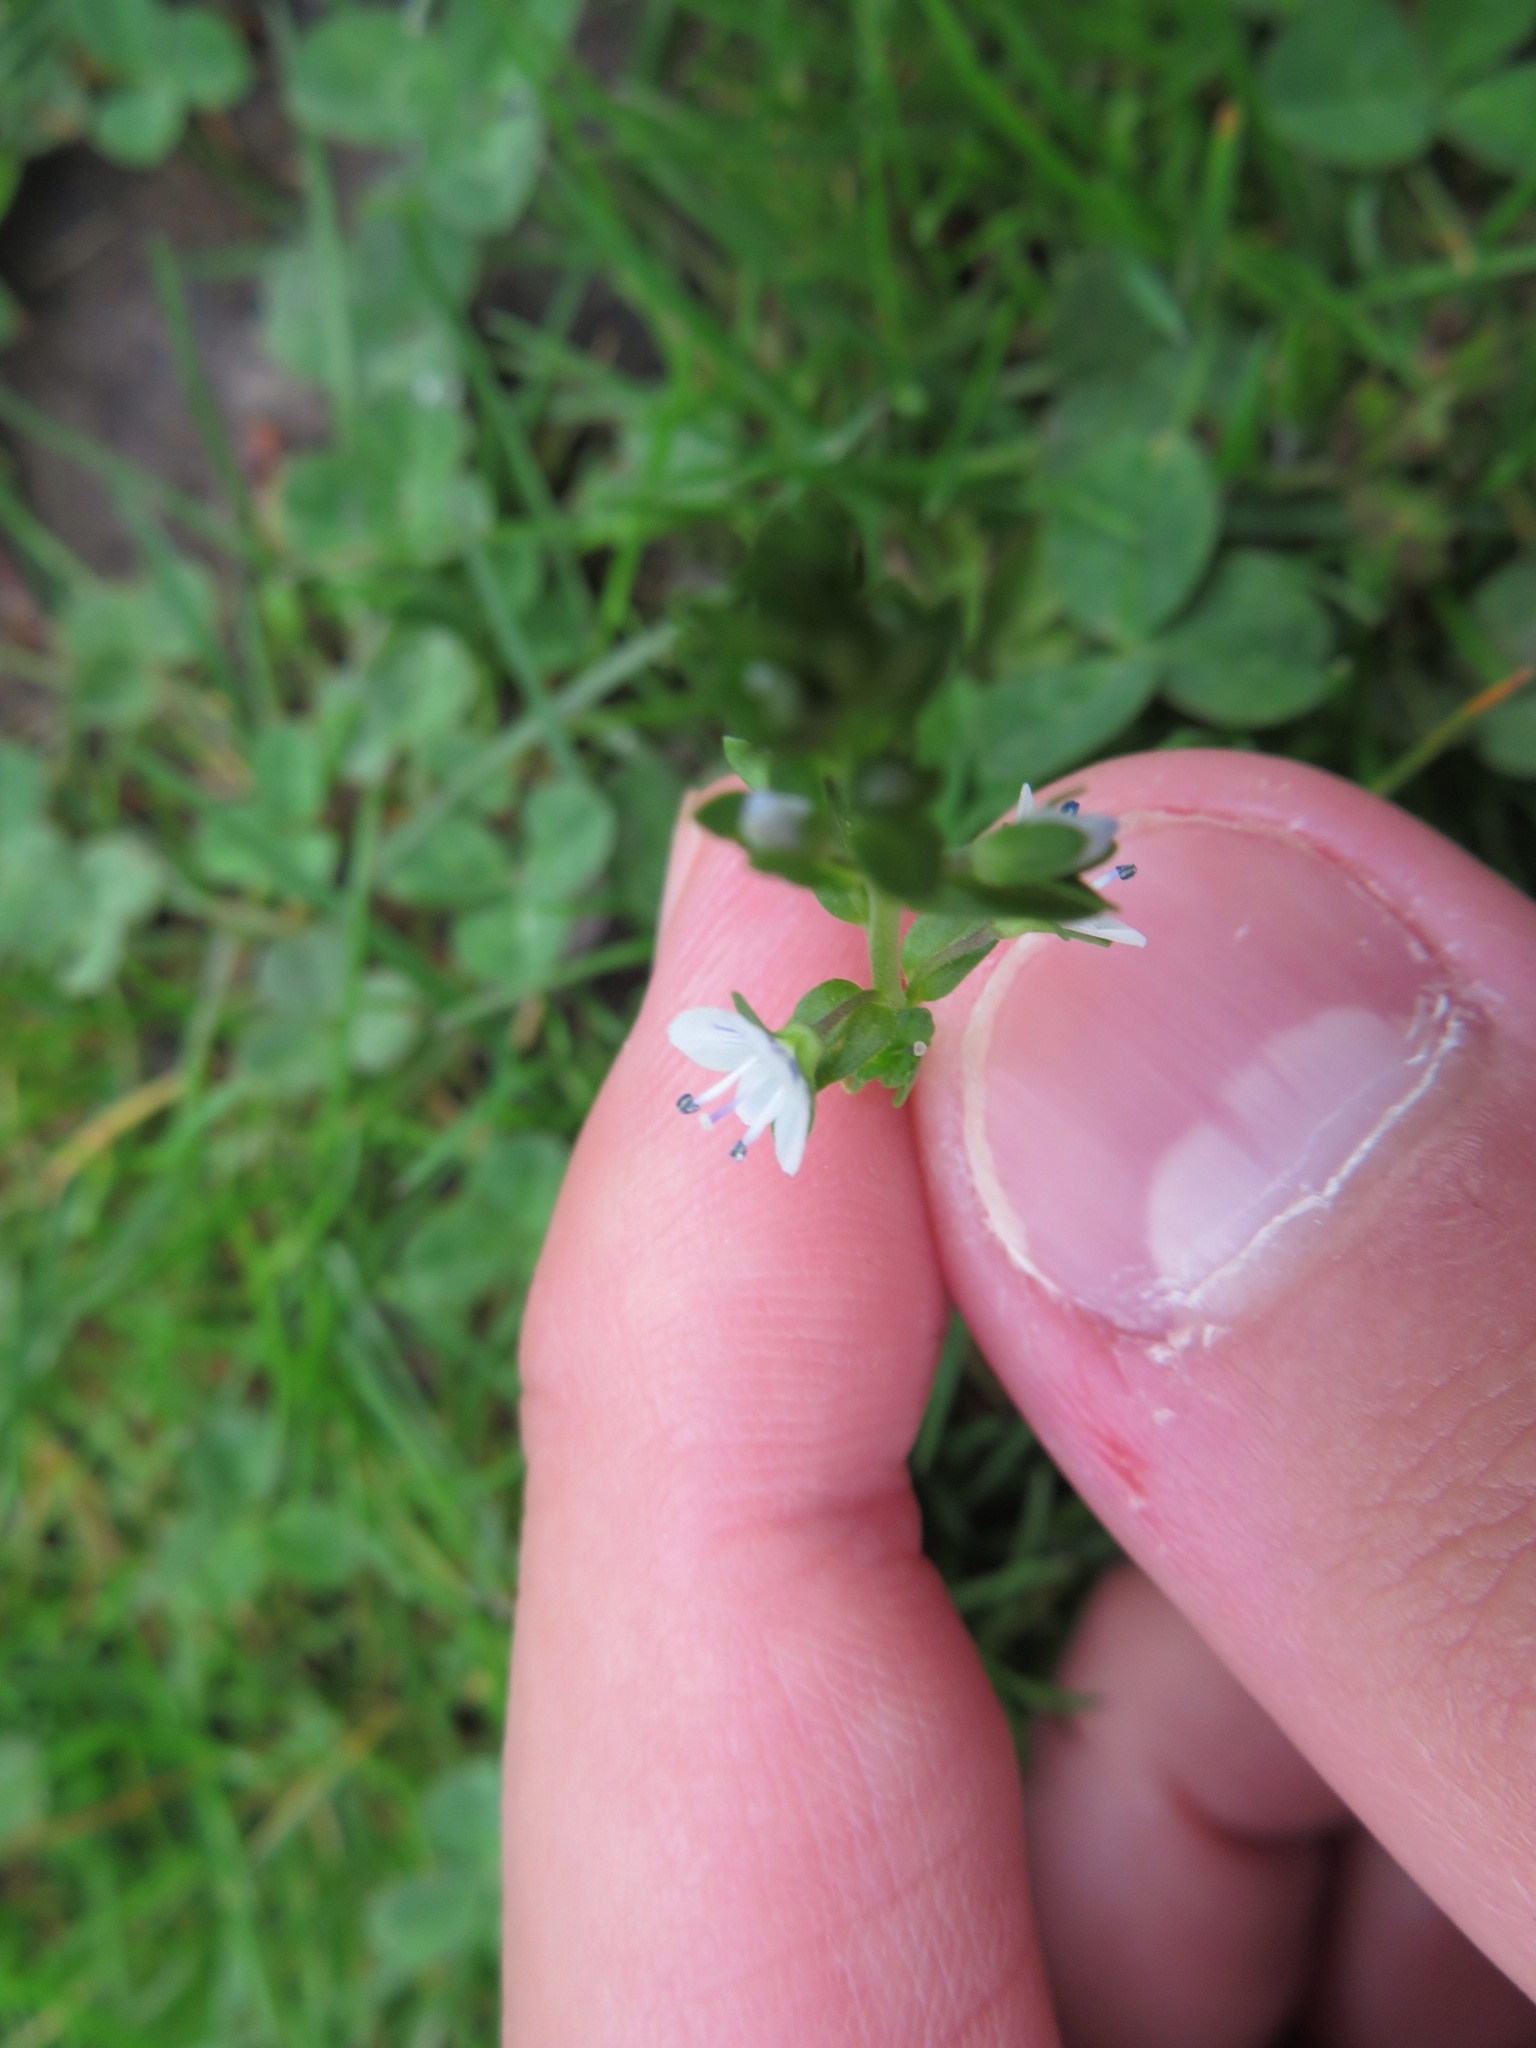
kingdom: Plantae
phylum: Tracheophyta
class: Magnoliopsida
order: Lamiales
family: Plantaginaceae
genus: Veronica
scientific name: Veronica serpyllifolia
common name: Thyme-leaved speedwell
